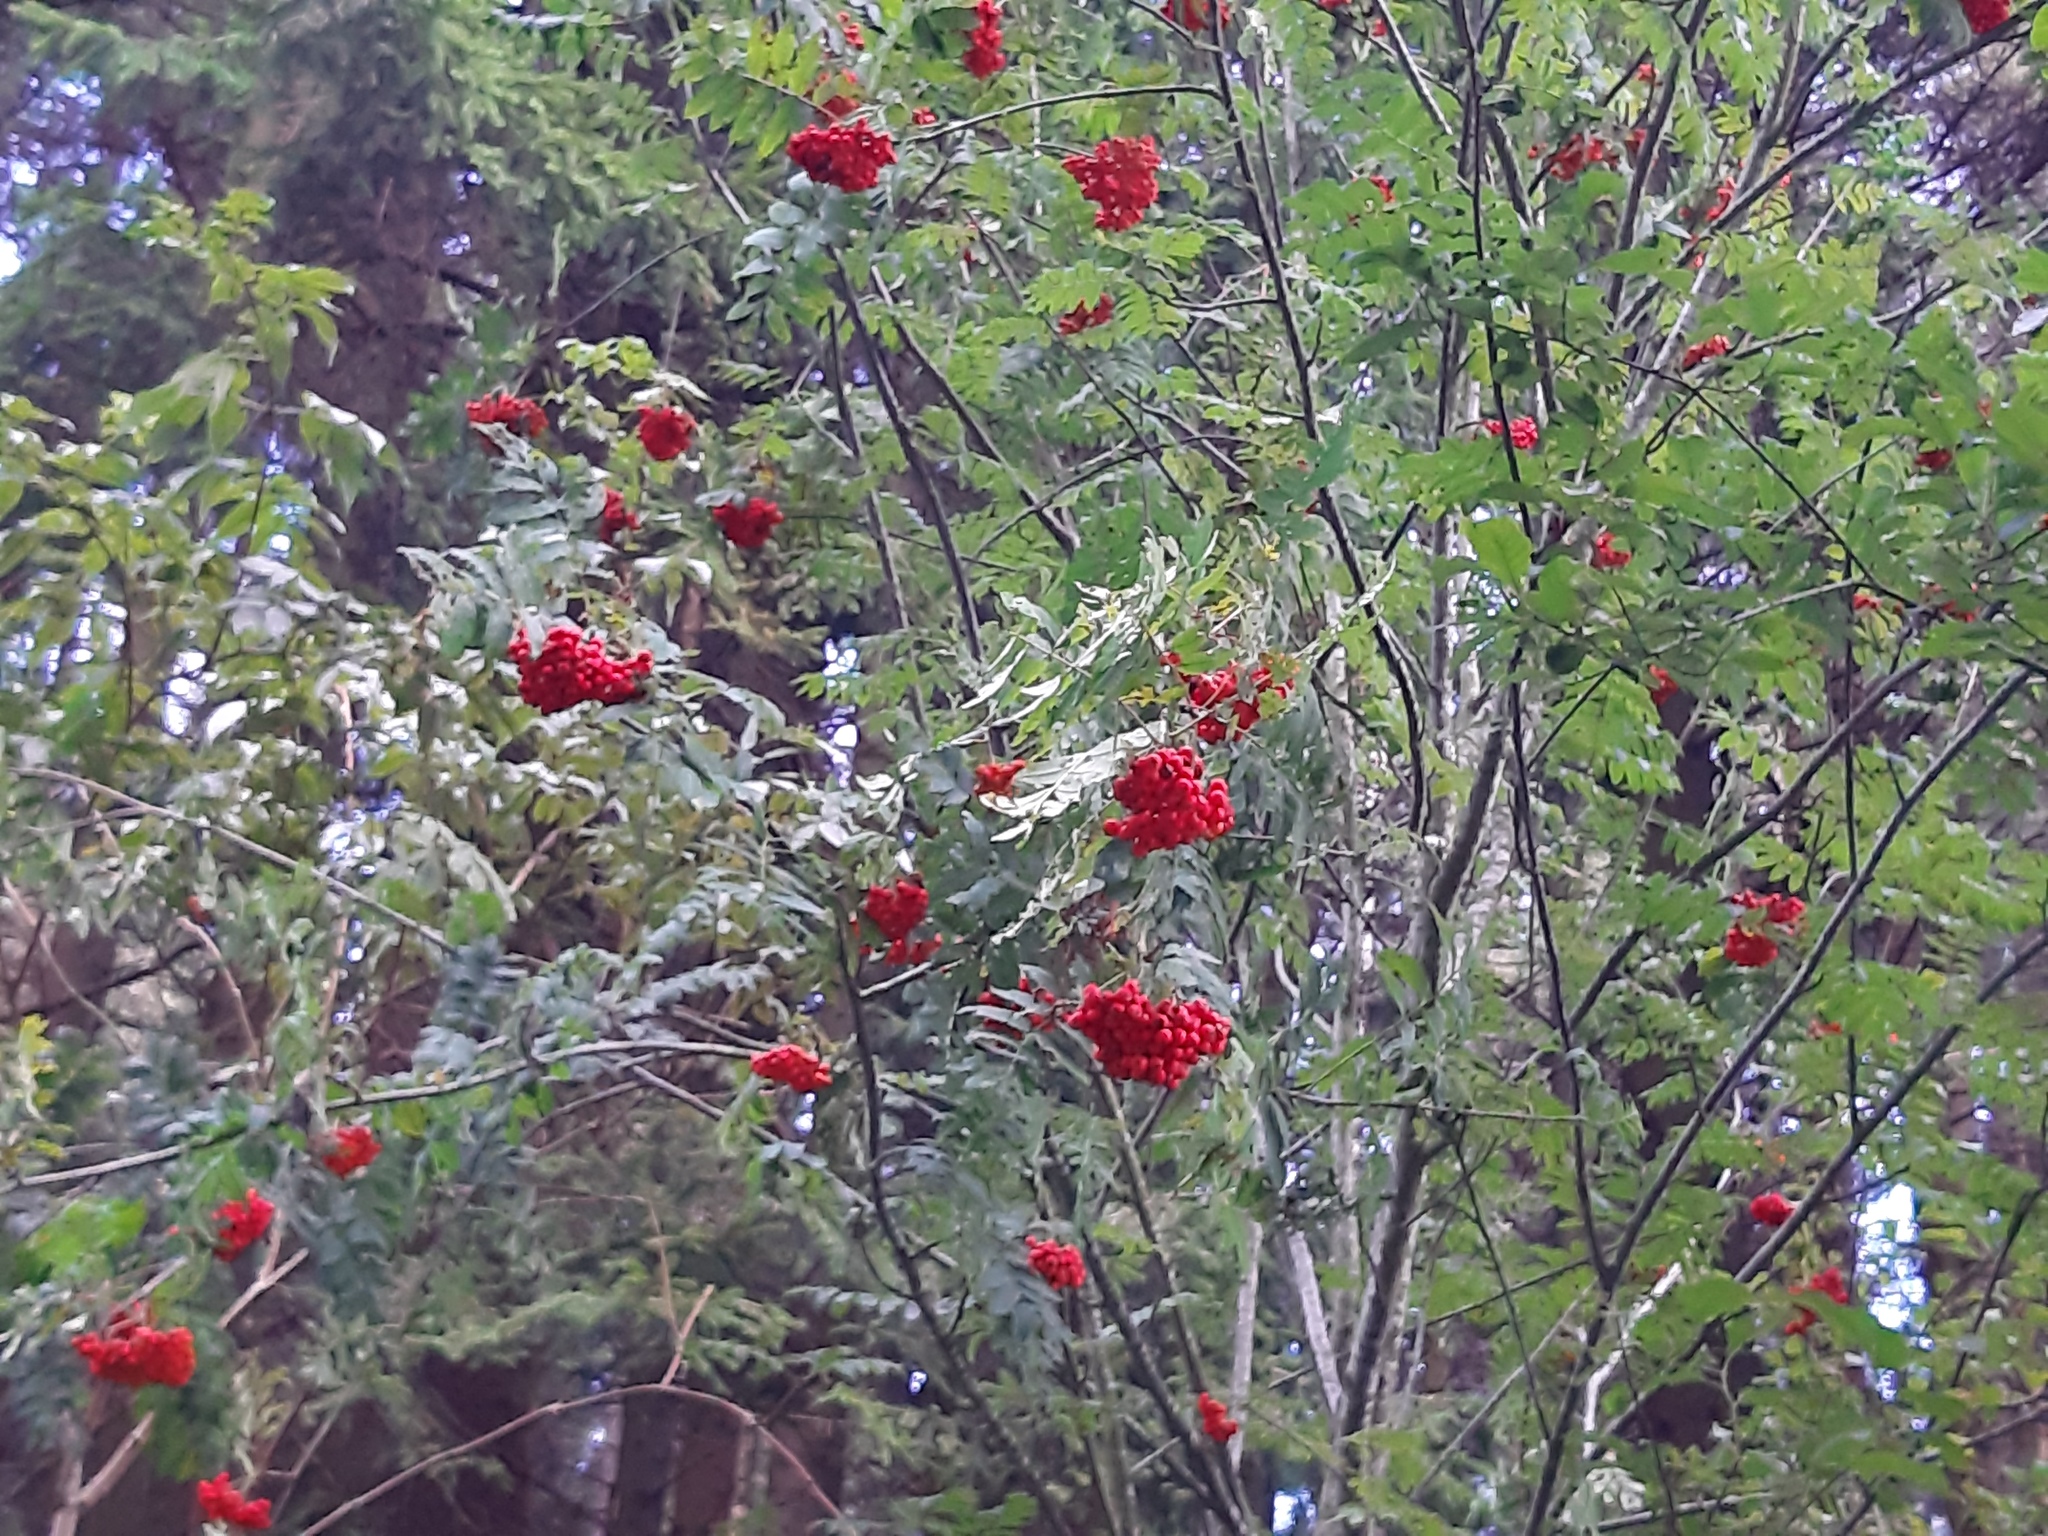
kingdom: Plantae
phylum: Tracheophyta
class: Magnoliopsida
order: Rosales
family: Rosaceae
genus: Sorbus
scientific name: Sorbus aucuparia
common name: Rowan
